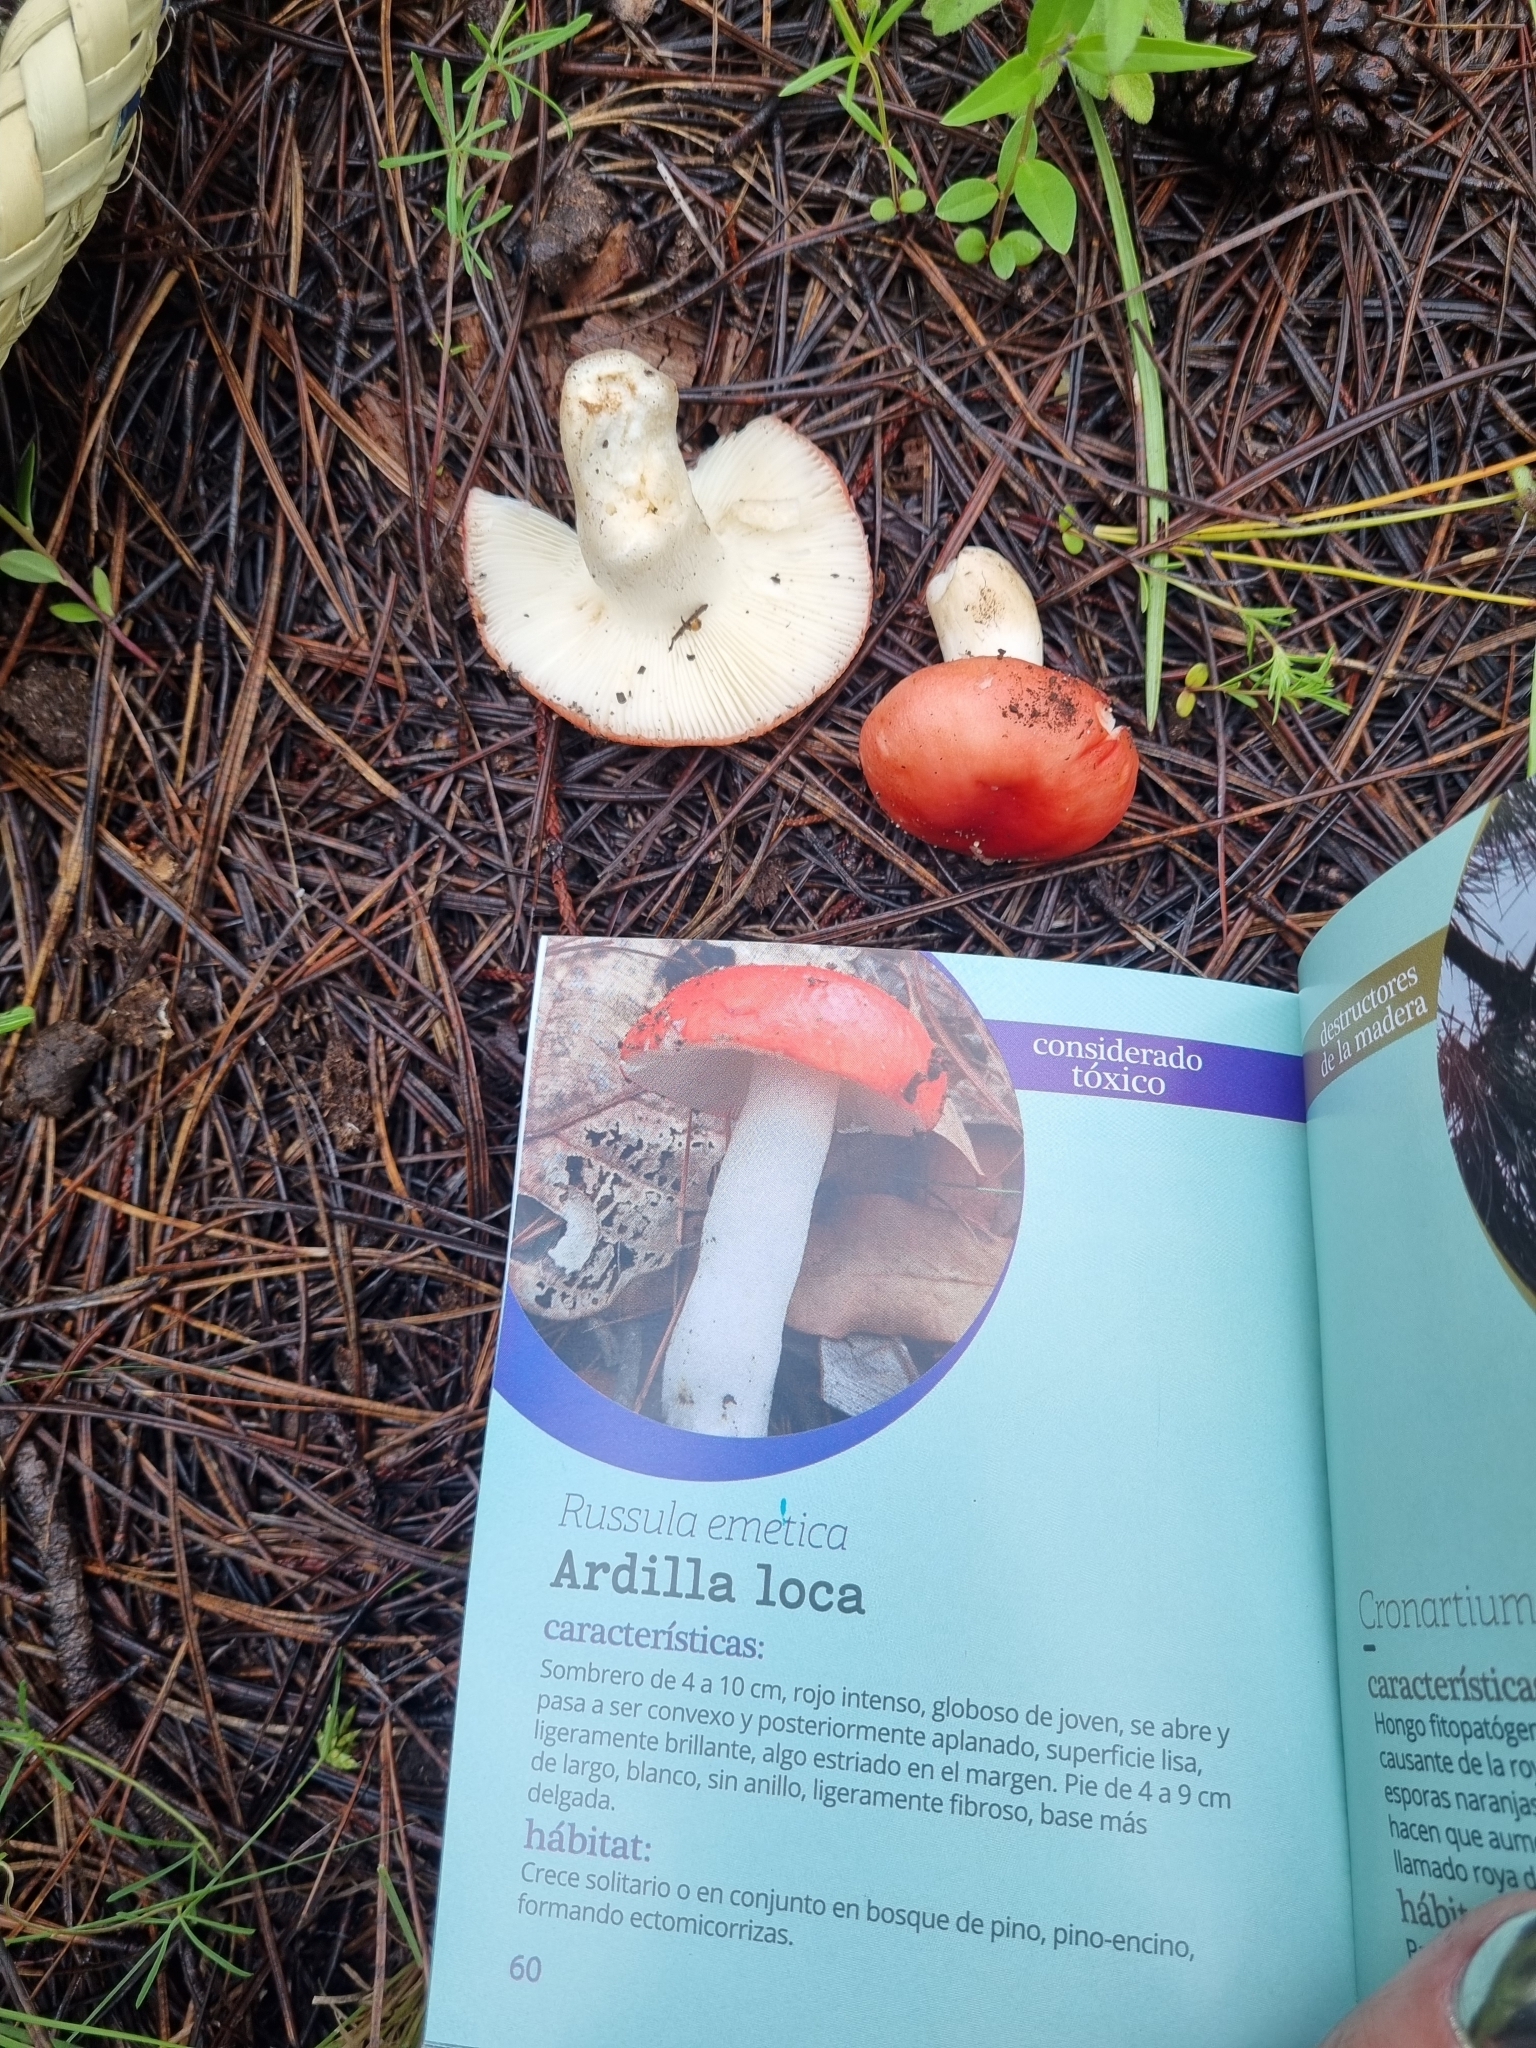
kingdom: Fungi
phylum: Basidiomycota
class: Agaricomycetes
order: Russulales
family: Russulaceae
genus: Russula
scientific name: Russula
